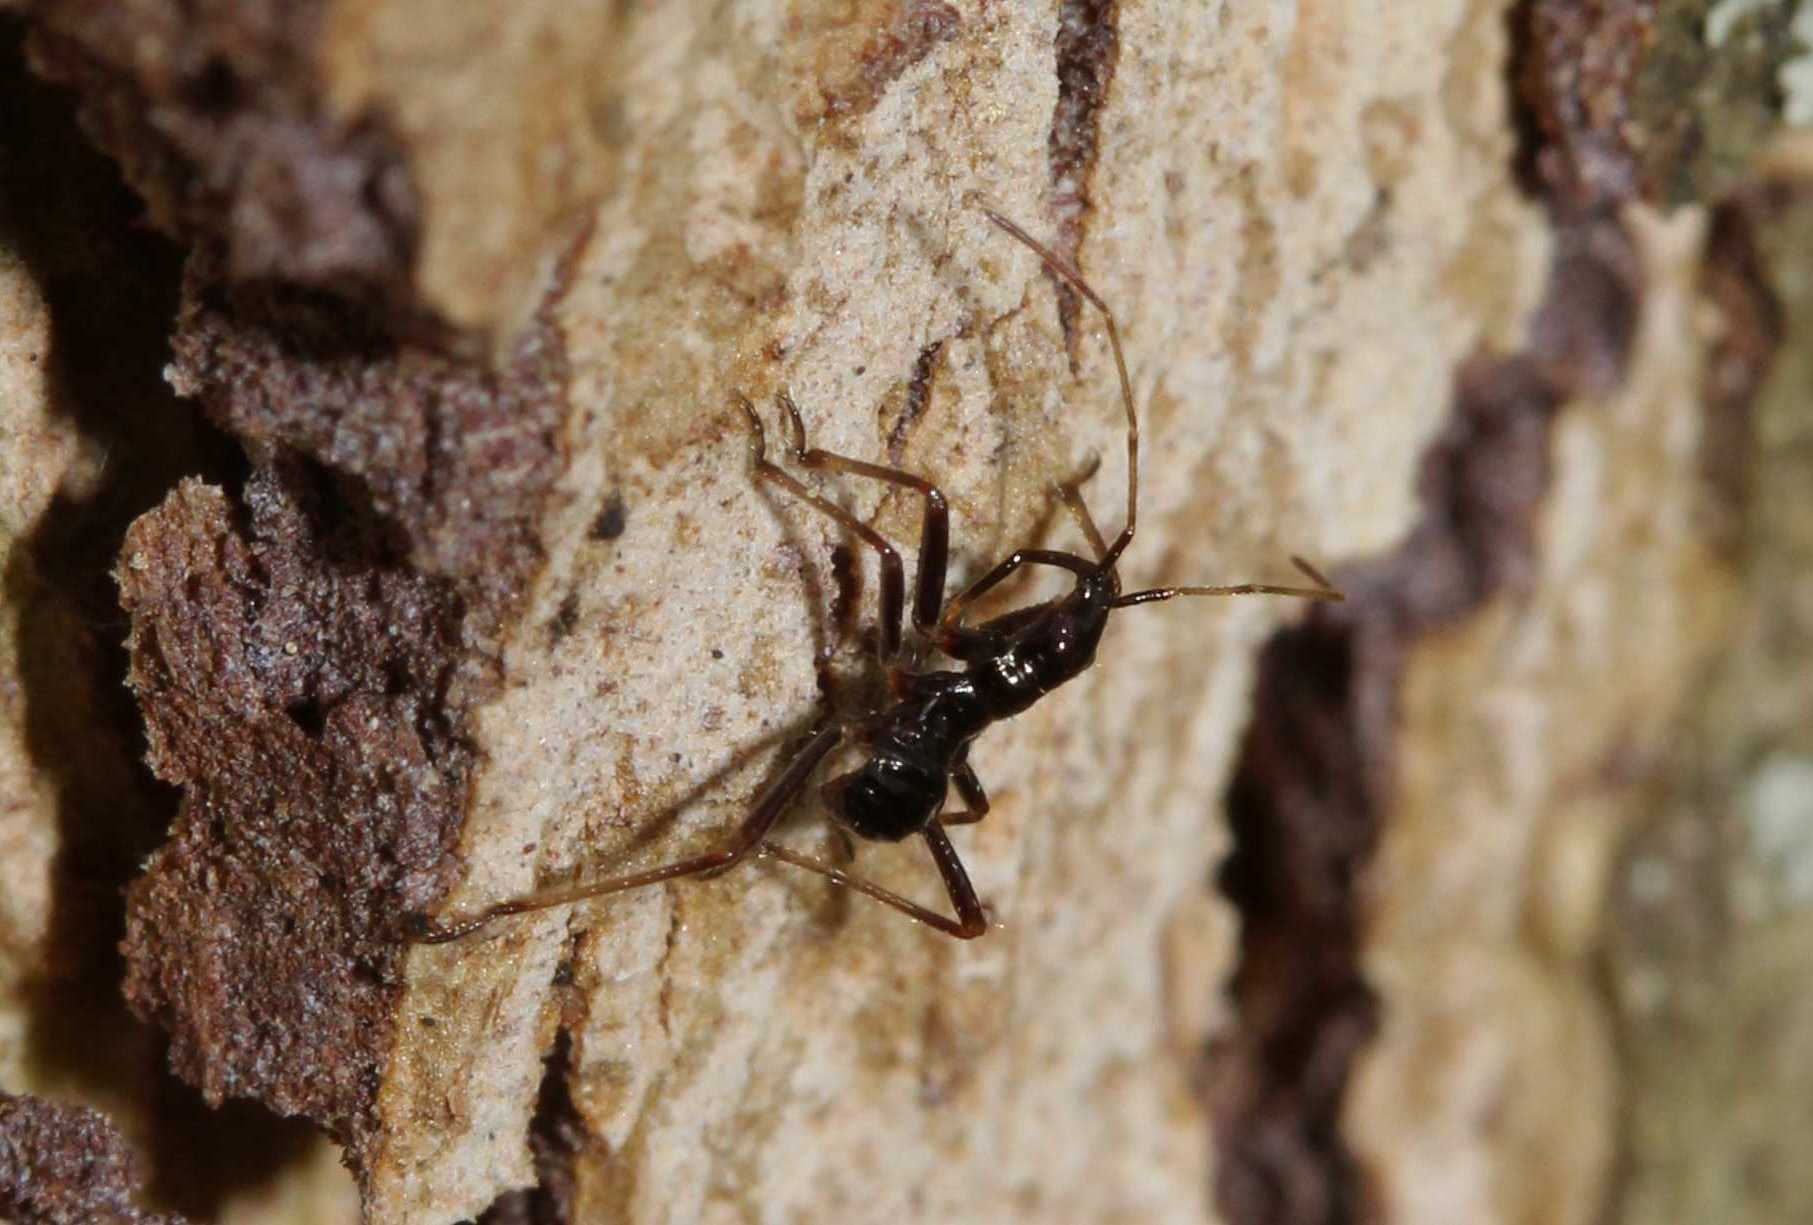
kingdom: Animalia
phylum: Arthropoda
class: Insecta
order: Hemiptera
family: Nabidae
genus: Himacerus
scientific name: Himacerus apterus
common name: Tree damsel bug
